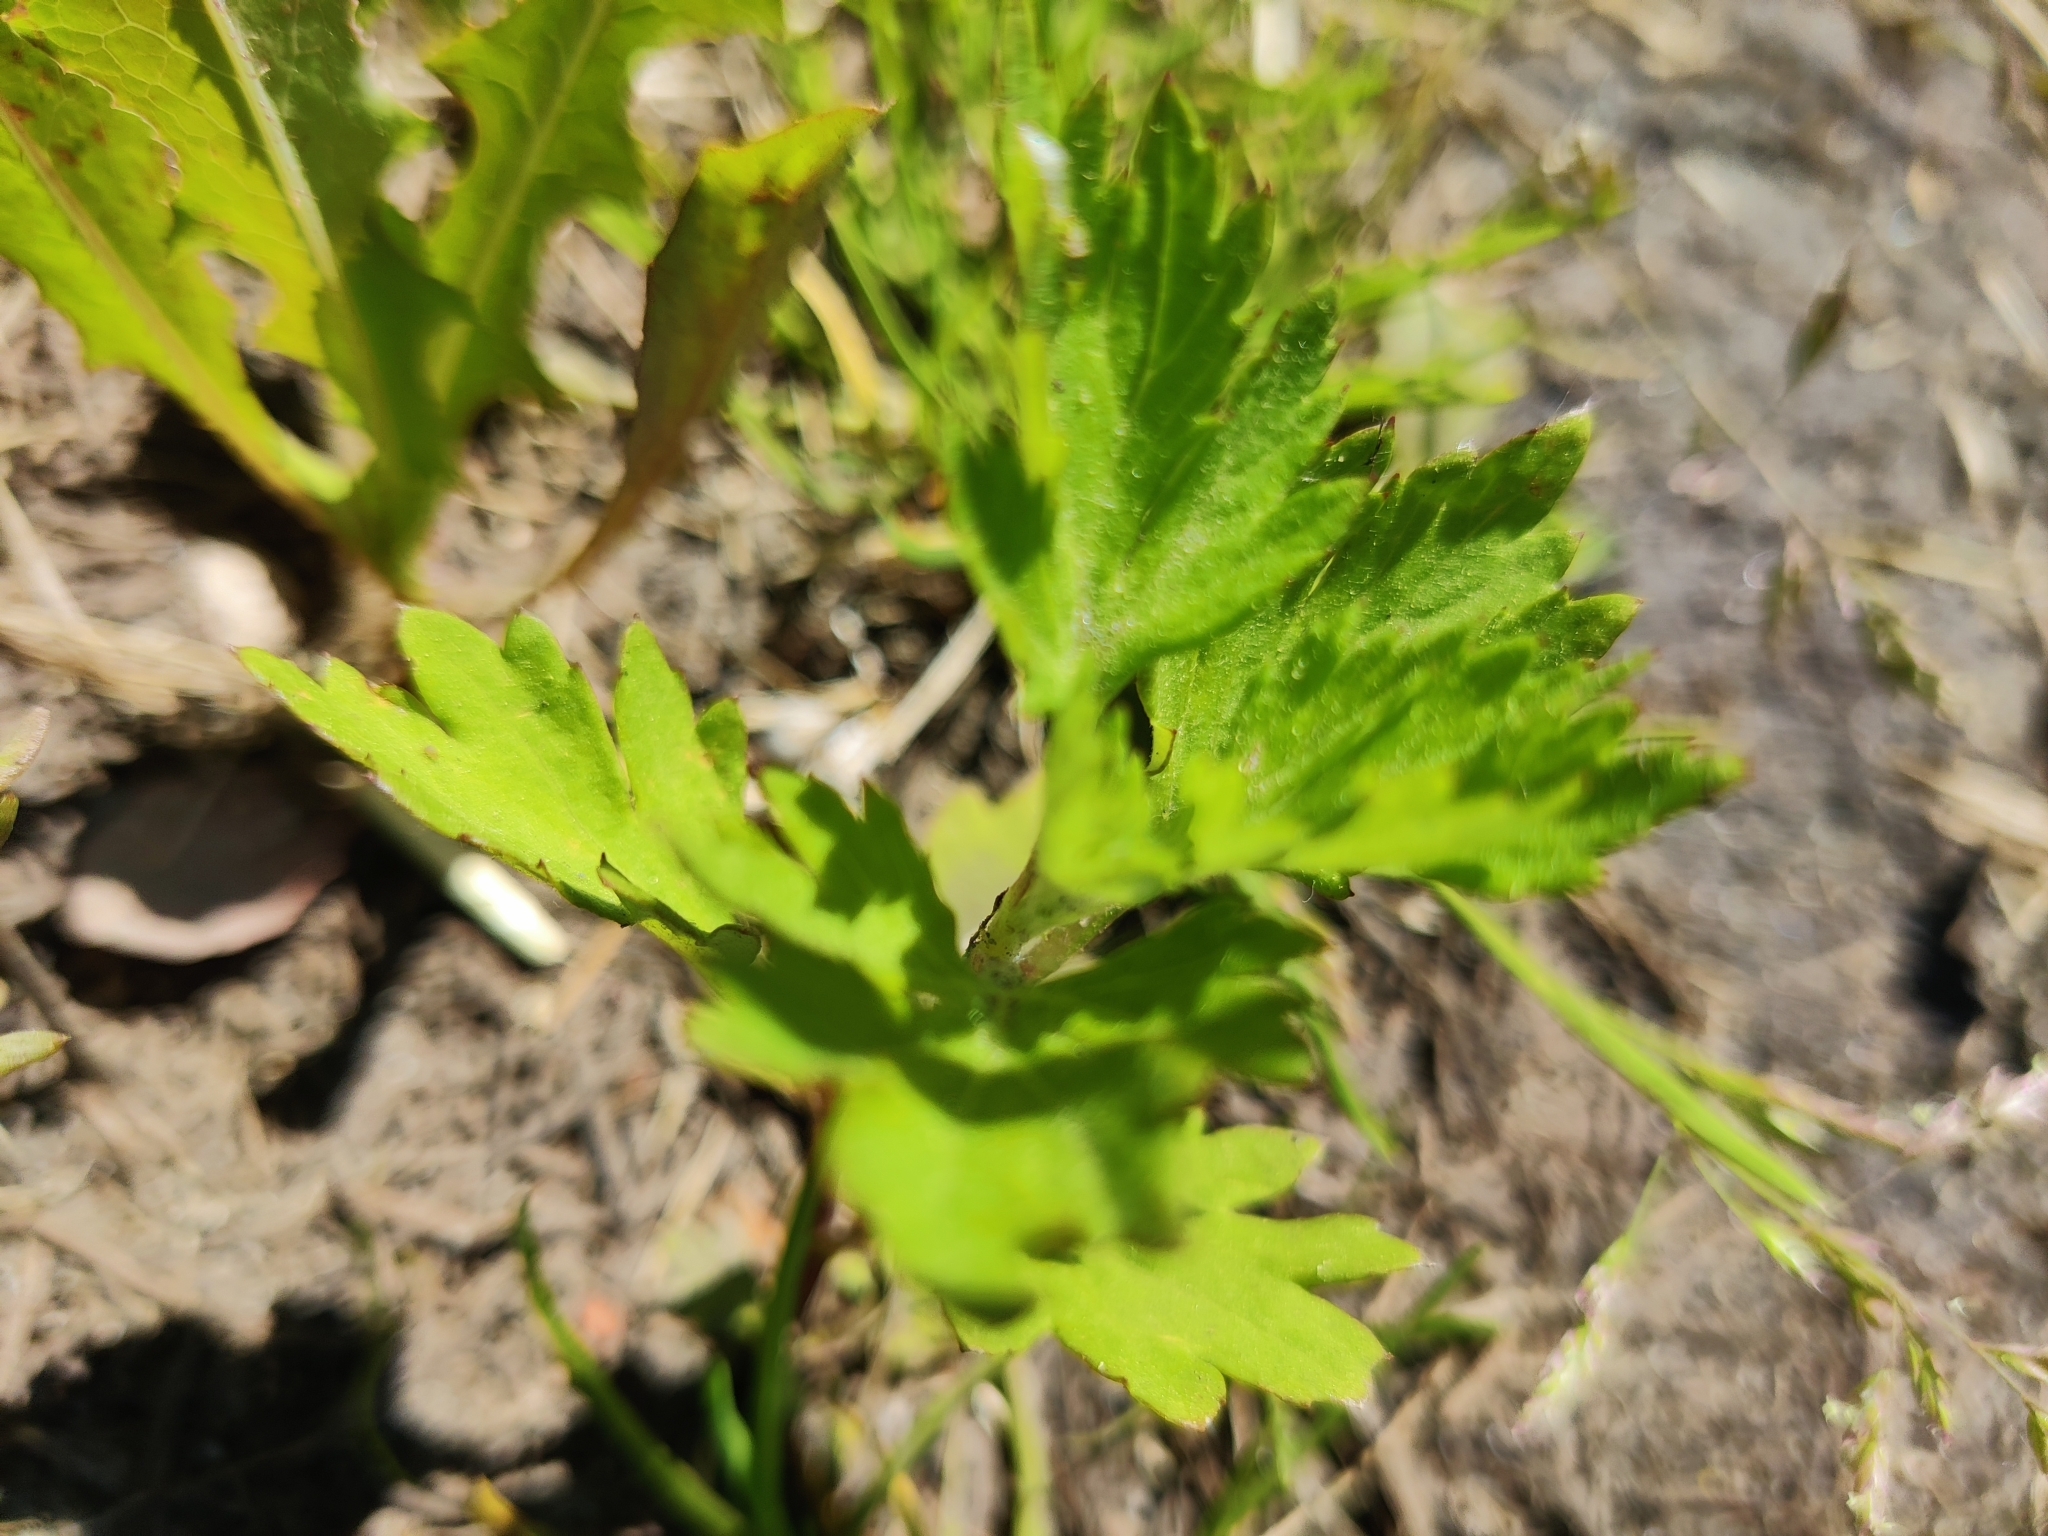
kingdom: Plantae
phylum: Tracheophyta
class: Magnoliopsida
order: Asterales
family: Asteraceae
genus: Artemisia
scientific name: Artemisia vulgaris
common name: Mugwort
